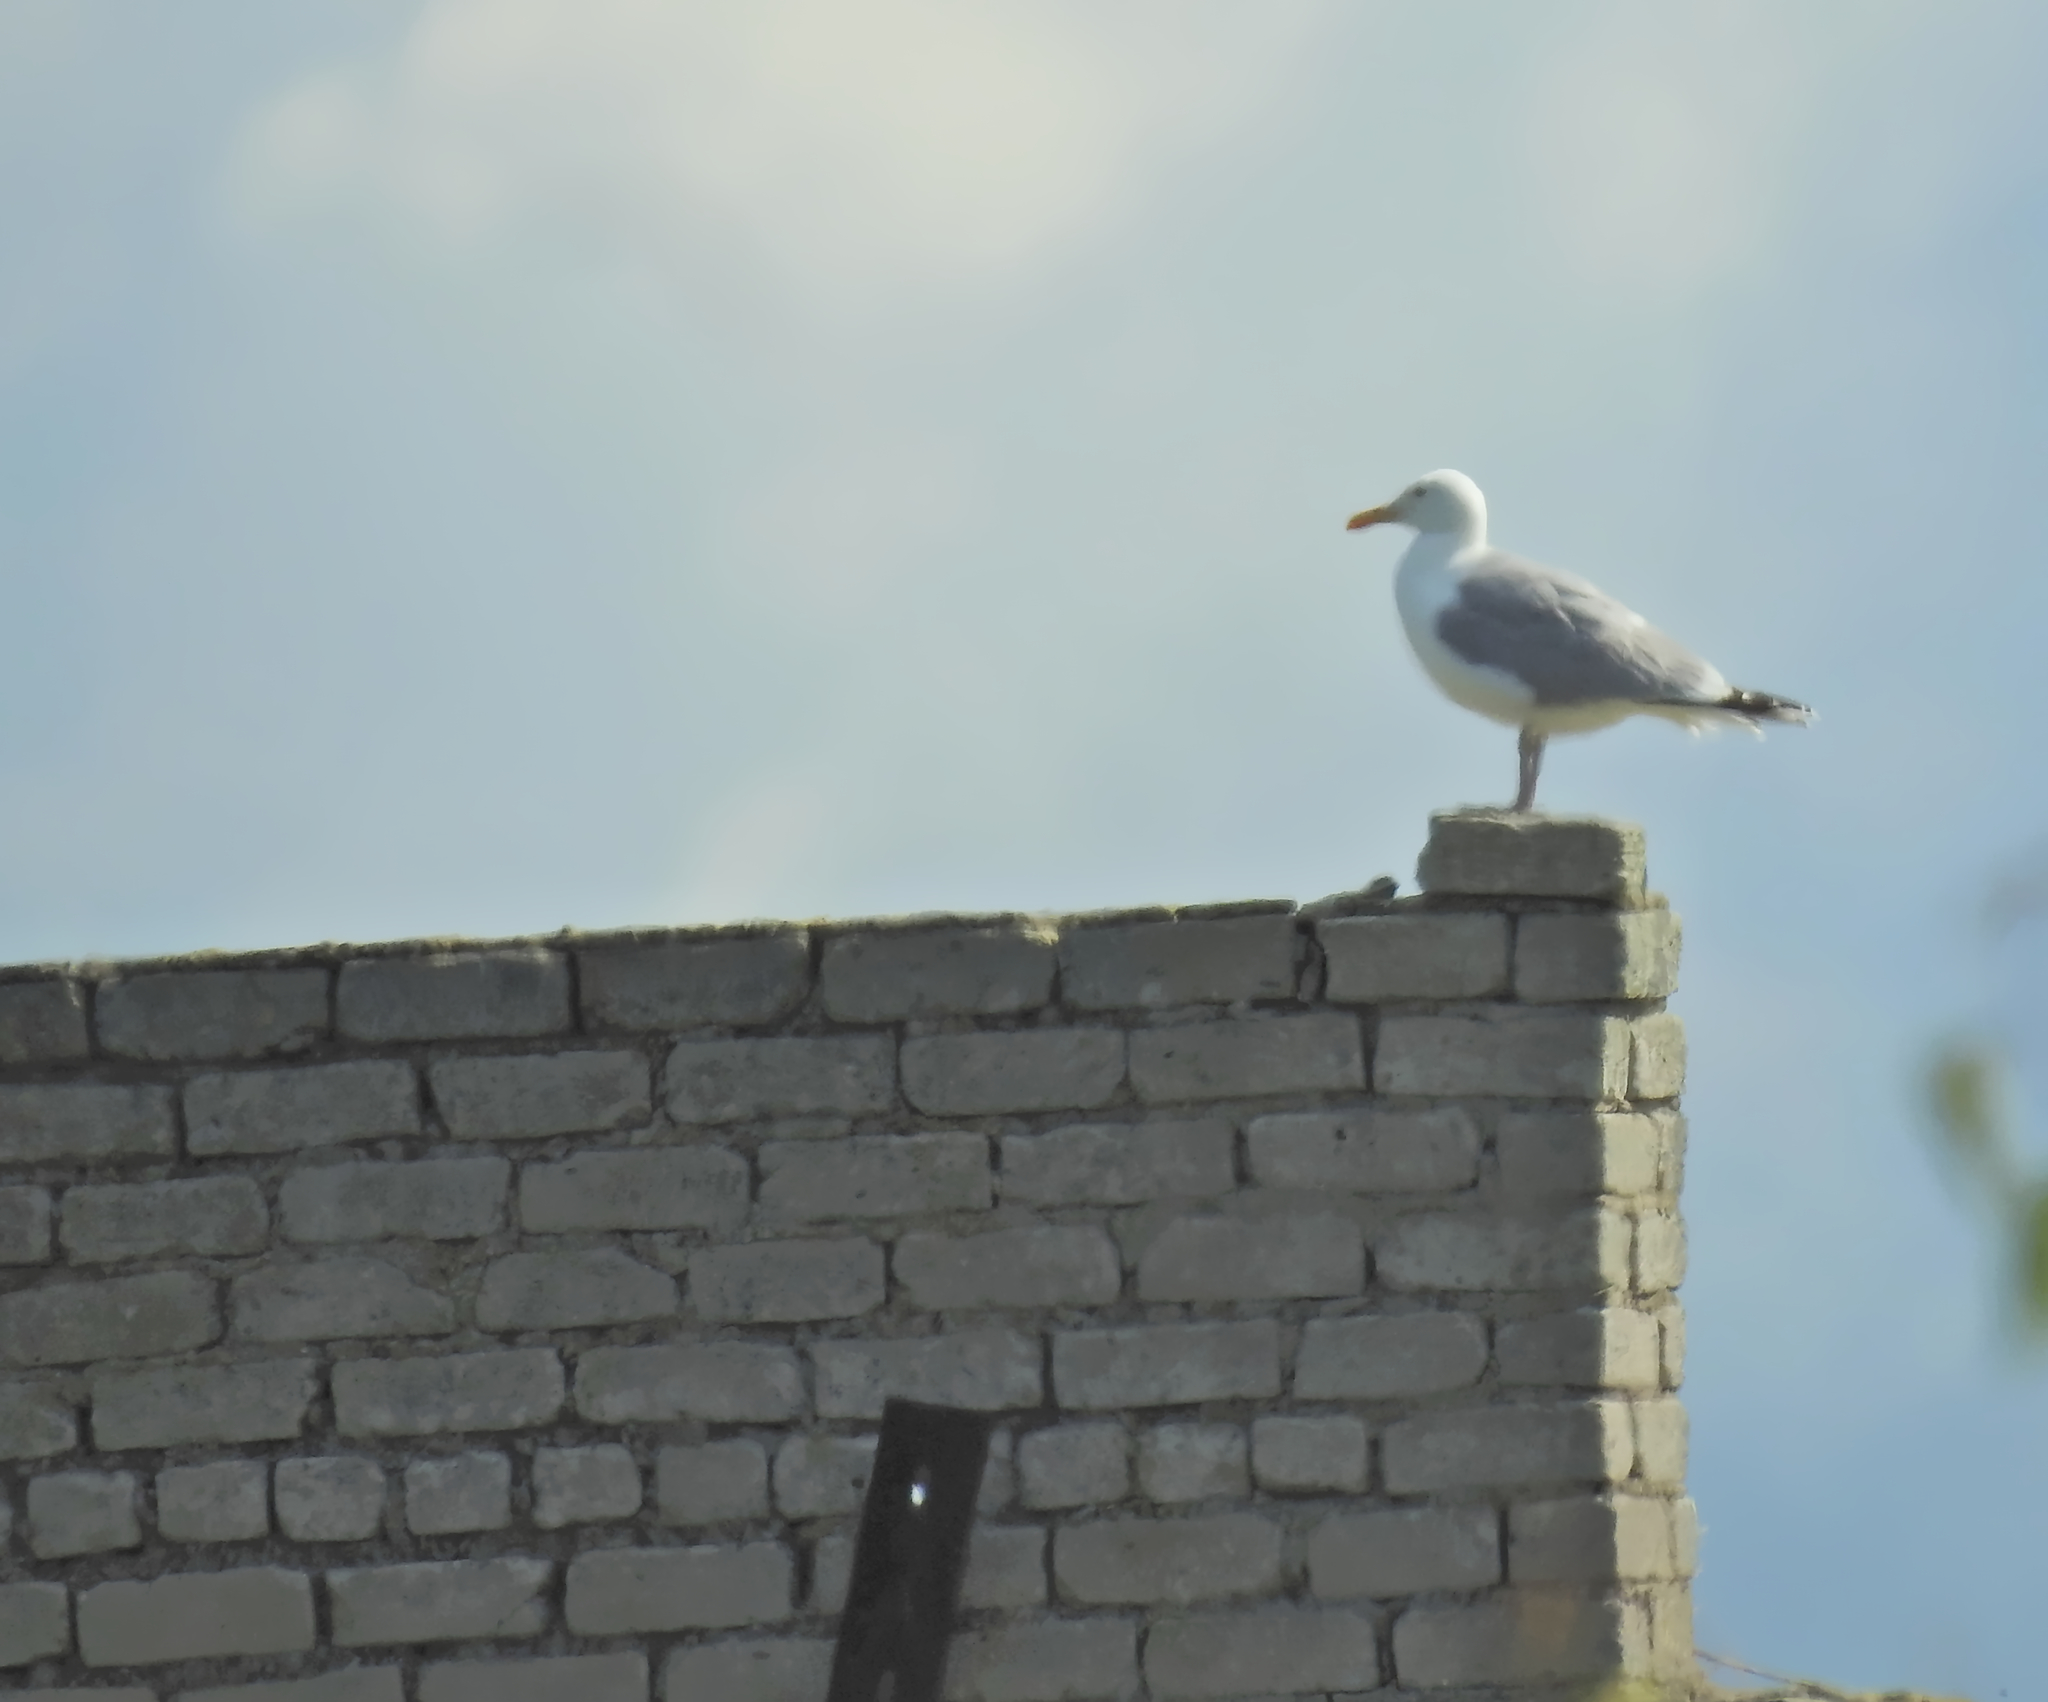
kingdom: Animalia
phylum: Chordata
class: Aves
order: Charadriiformes
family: Laridae
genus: Larus
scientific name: Larus argentatus
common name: Herring gull
